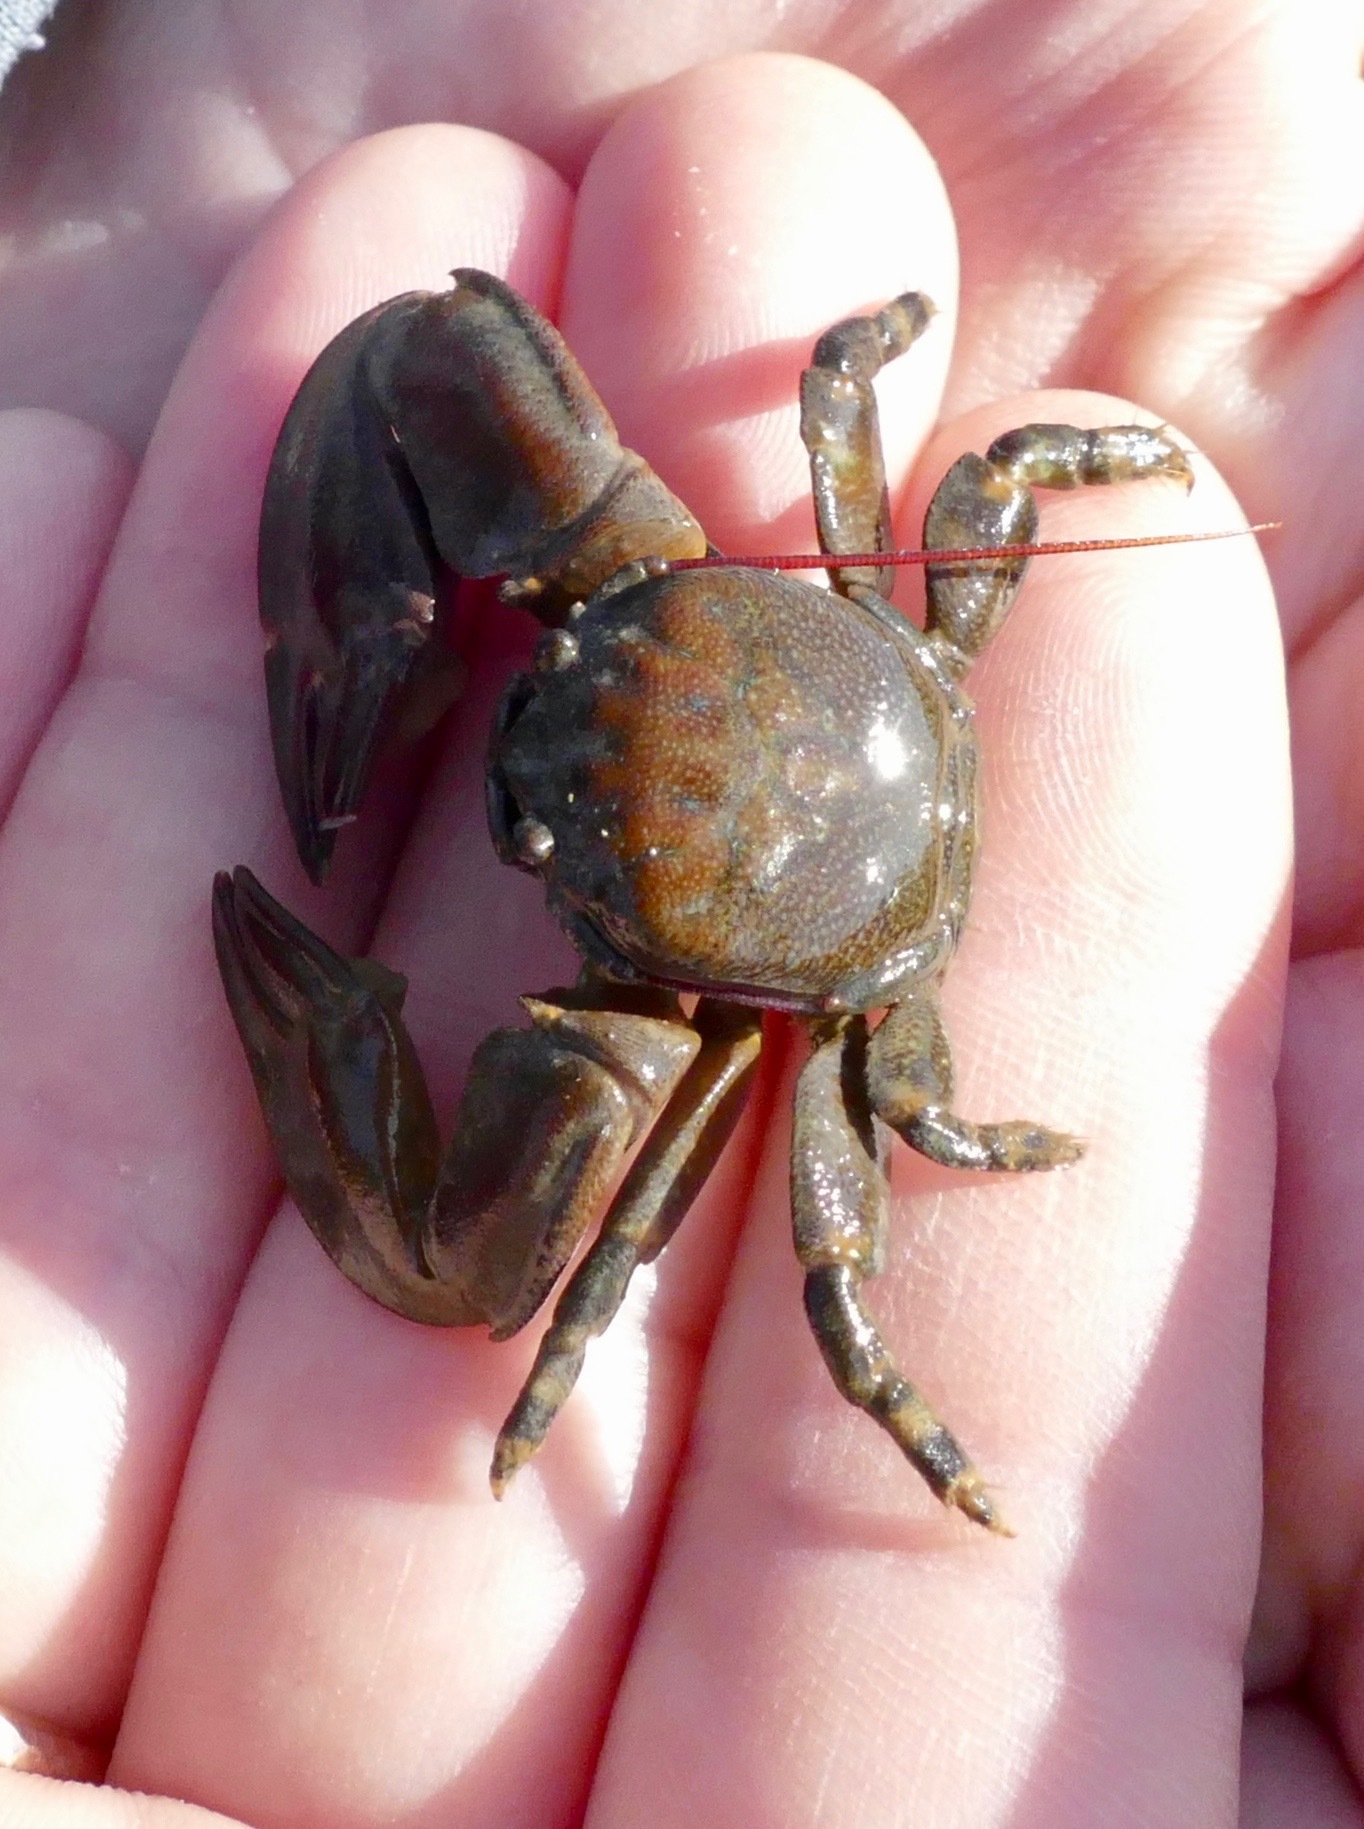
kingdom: Animalia
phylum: Arthropoda
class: Malacostraca
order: Decapoda
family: Porcellanidae
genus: Petrolisthes
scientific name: Petrolisthes cinctipes
